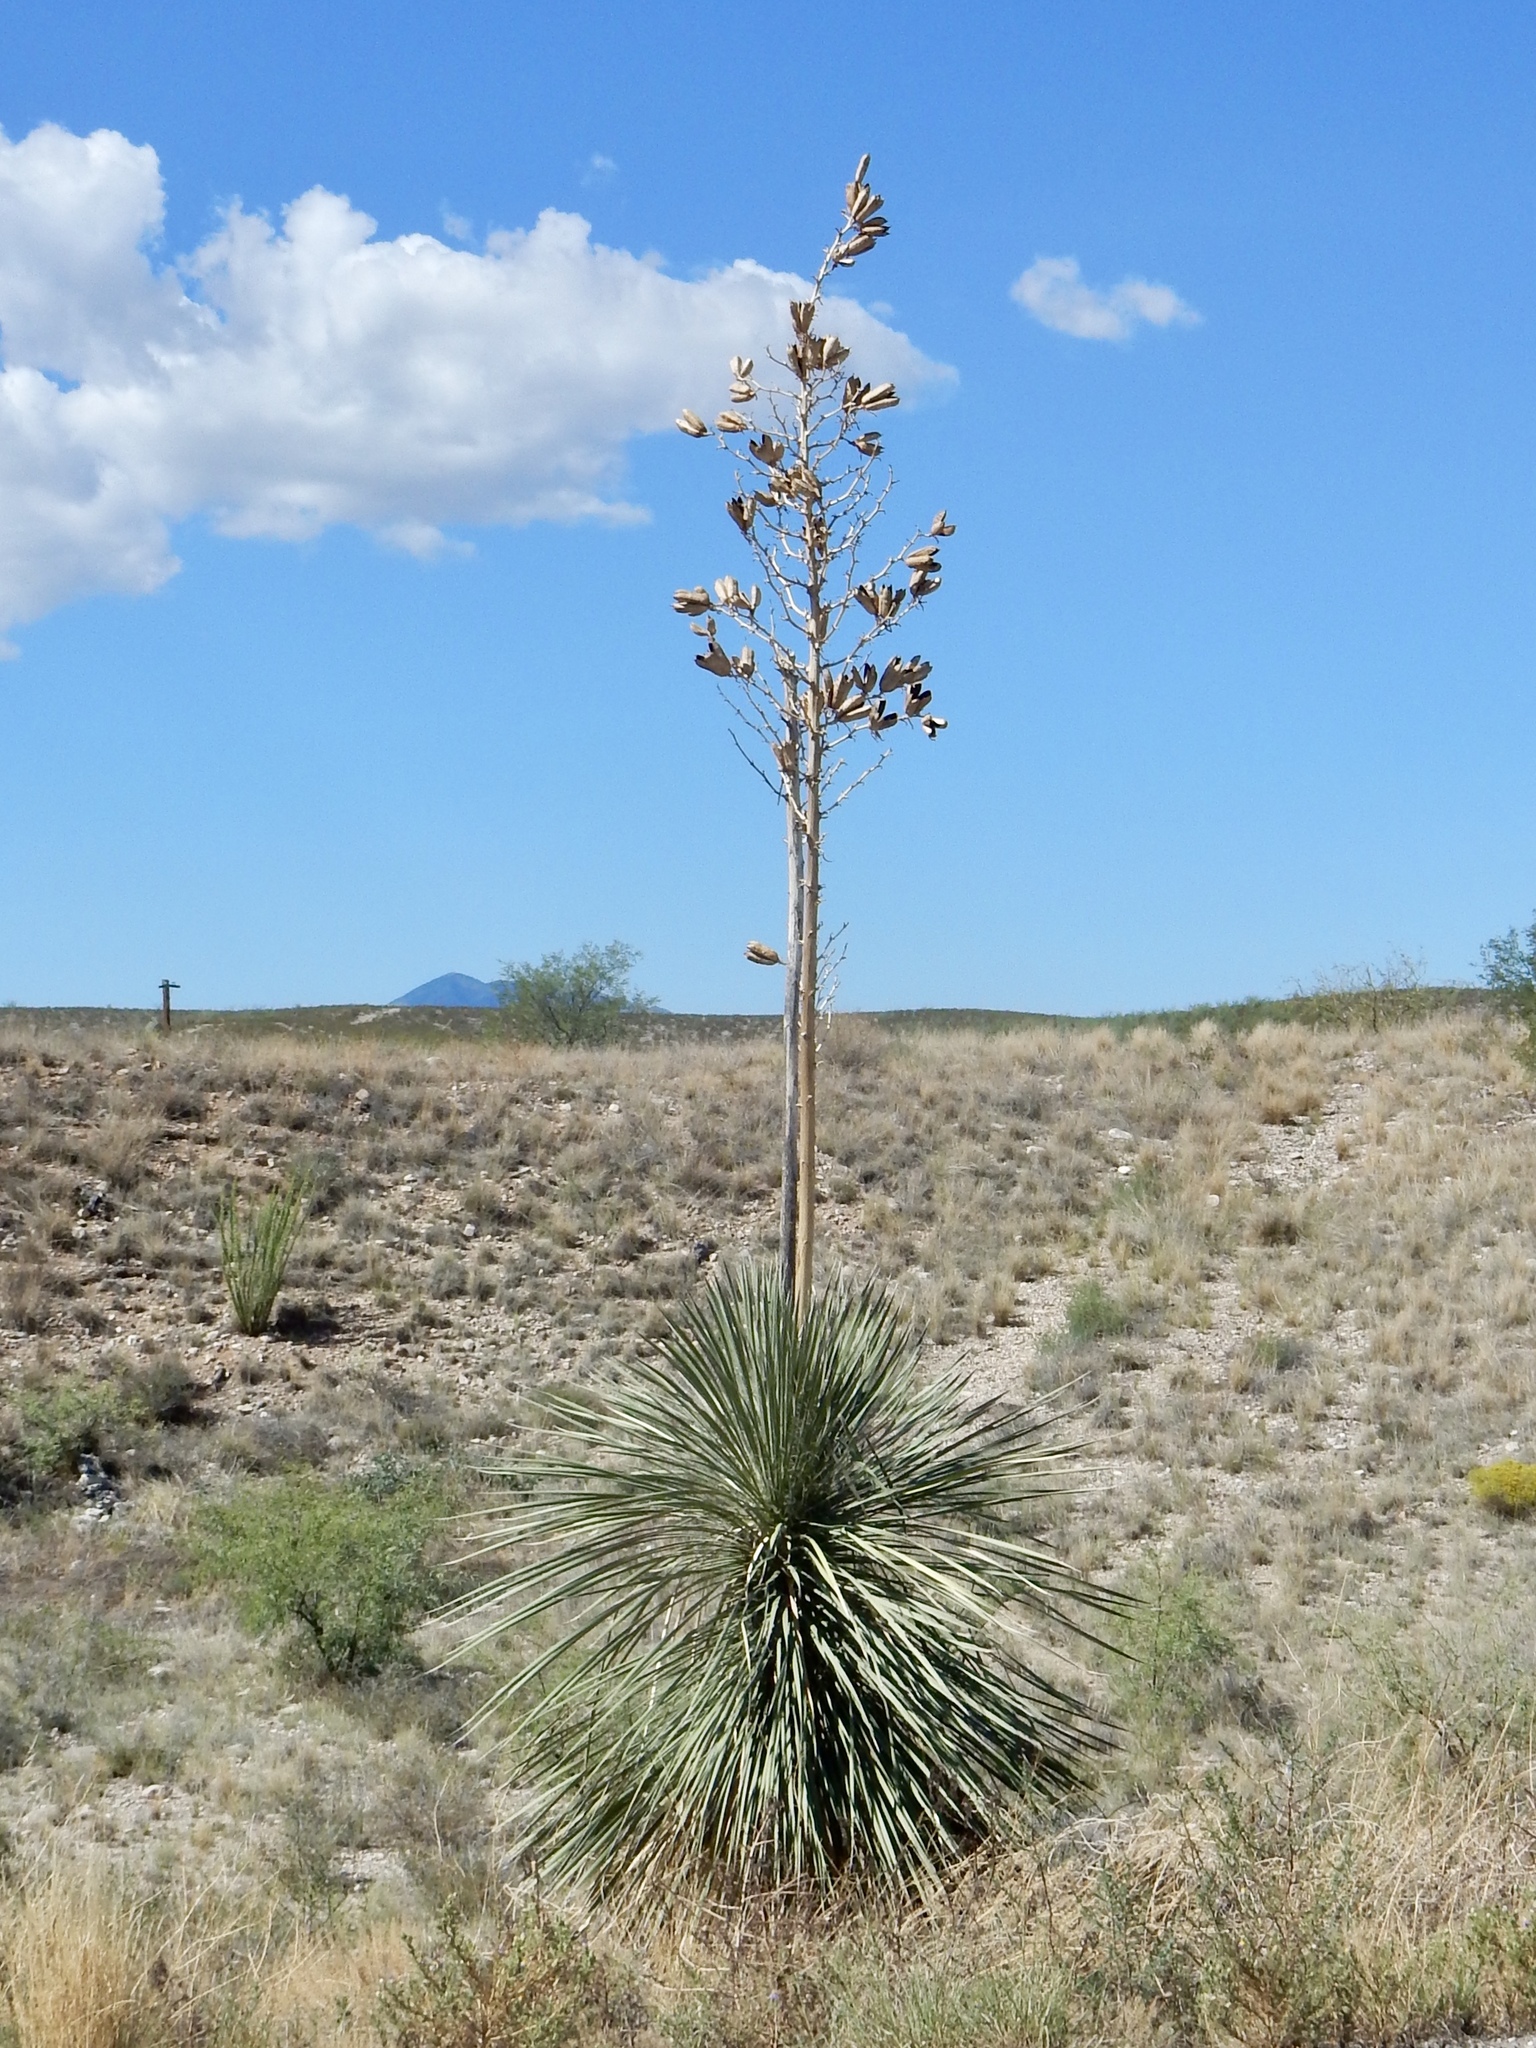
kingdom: Plantae
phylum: Tracheophyta
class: Liliopsida
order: Asparagales
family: Asparagaceae
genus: Yucca
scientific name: Yucca elata
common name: Palmella
